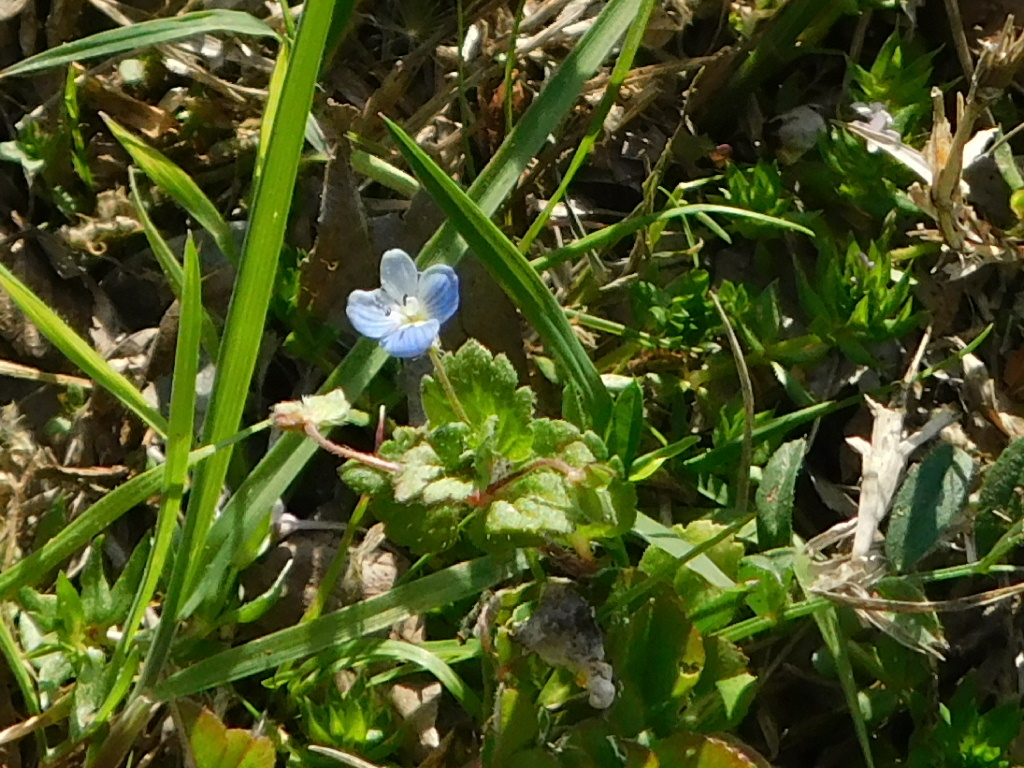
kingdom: Plantae
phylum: Tracheophyta
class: Magnoliopsida
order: Lamiales
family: Plantaginaceae
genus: Veronica
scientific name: Veronica persica
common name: Common field-speedwell
